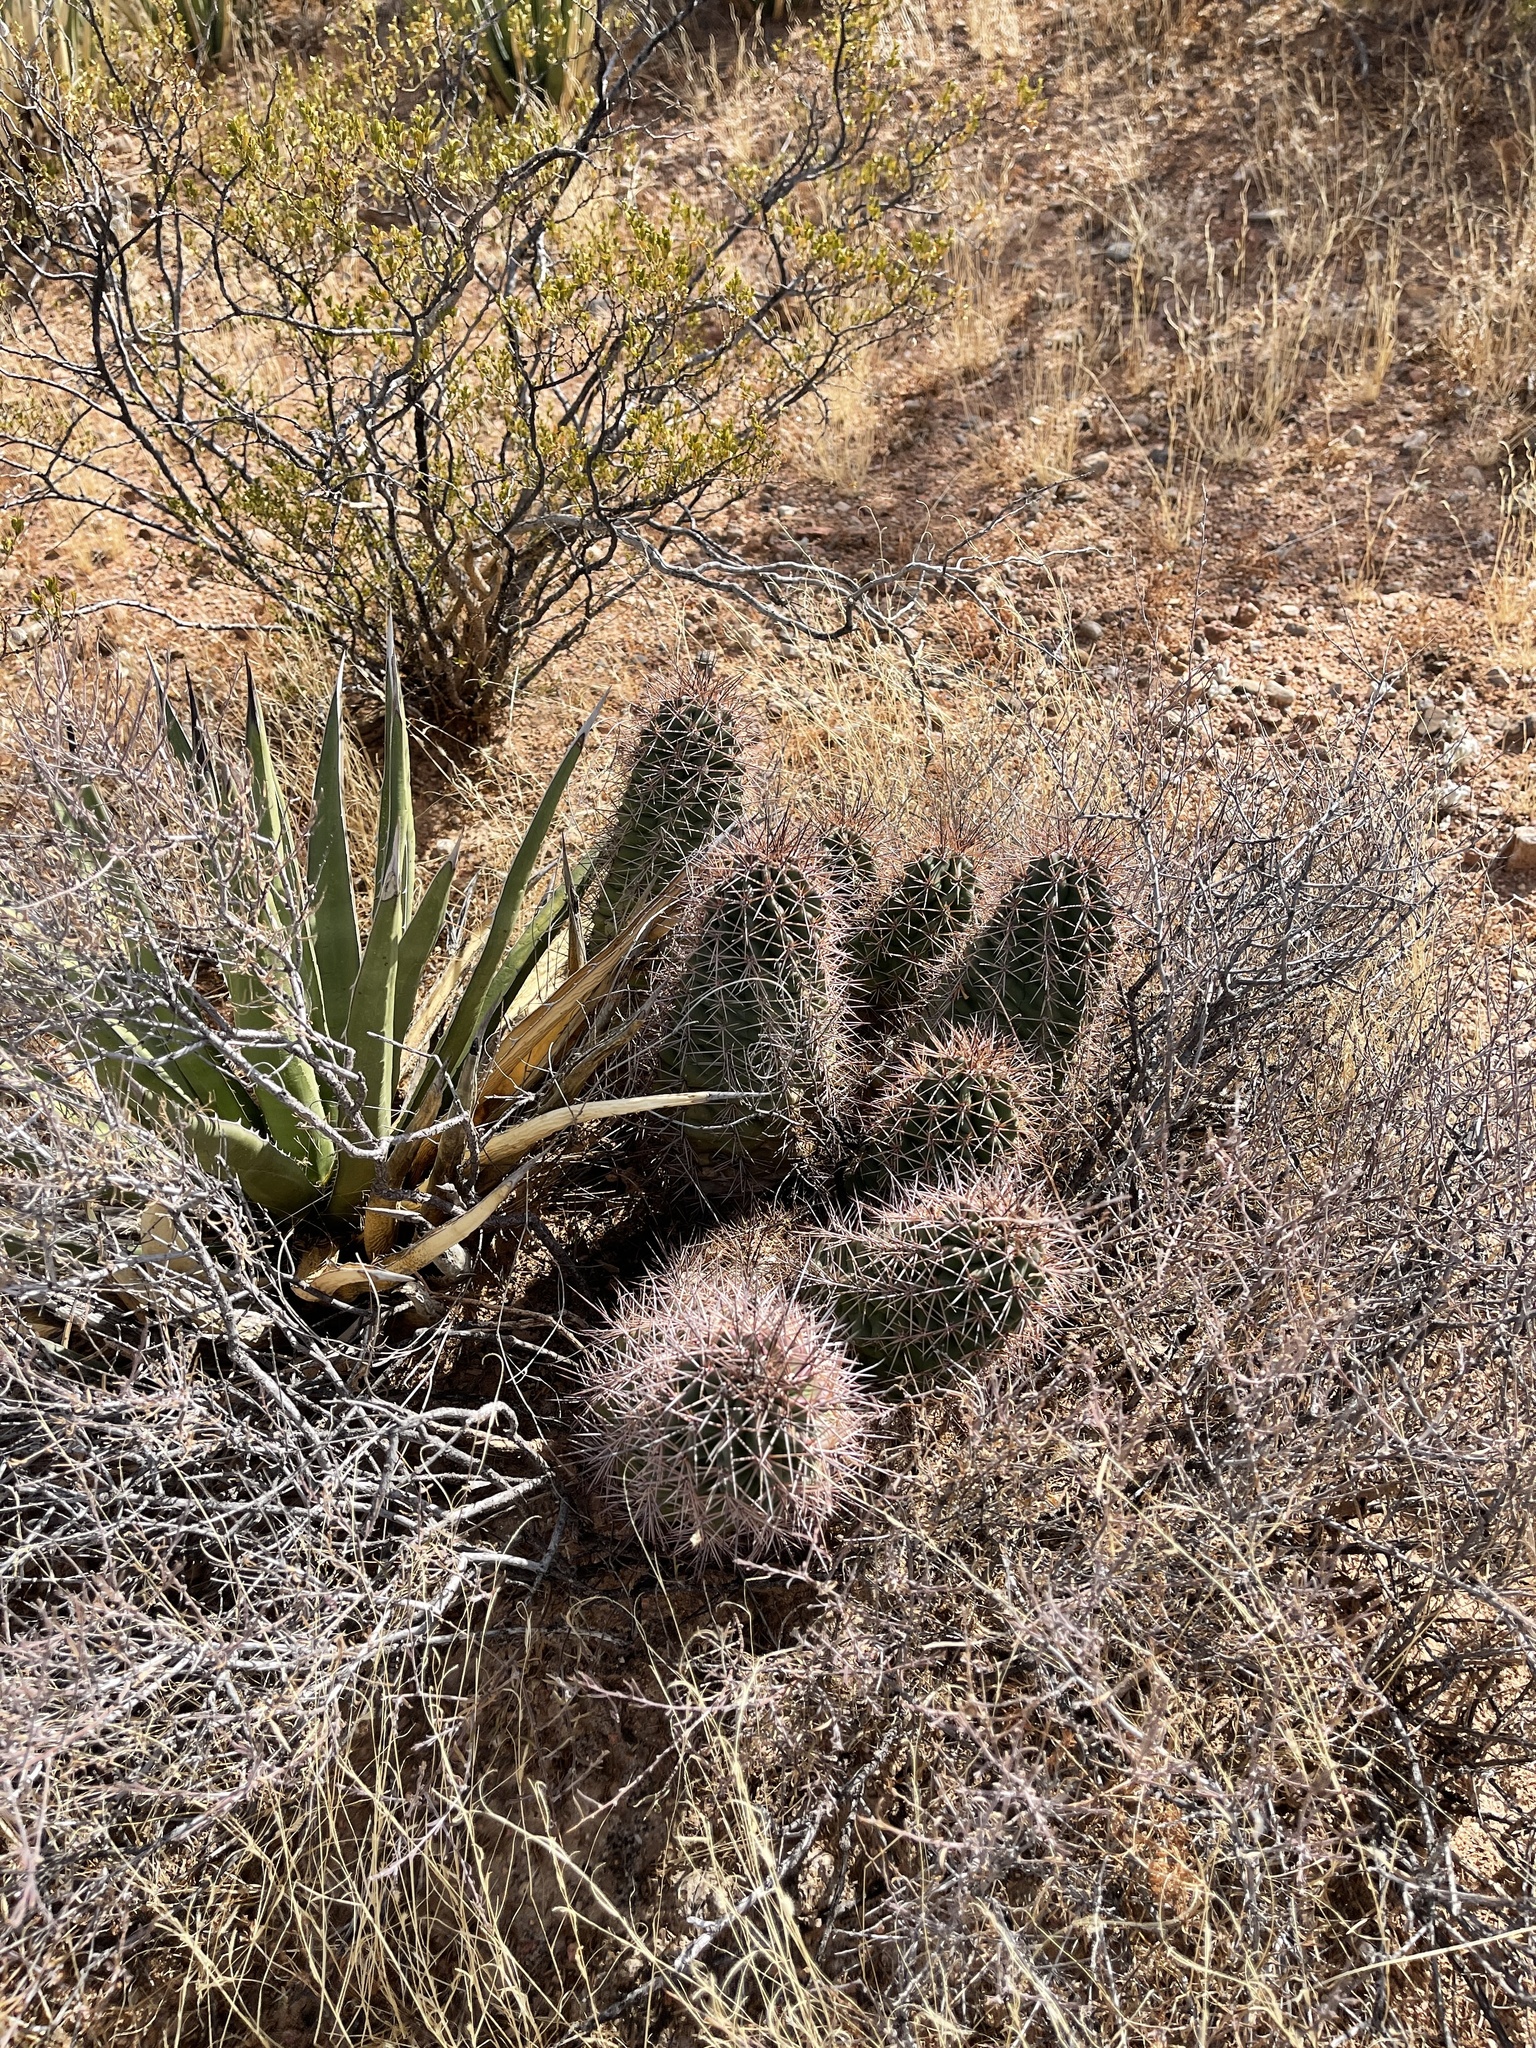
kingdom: Plantae
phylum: Tracheophyta
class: Magnoliopsida
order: Caryophyllales
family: Cactaceae
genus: Echinocereus
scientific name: Echinocereus coccineus
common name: Scarlet hedgehog cactus
